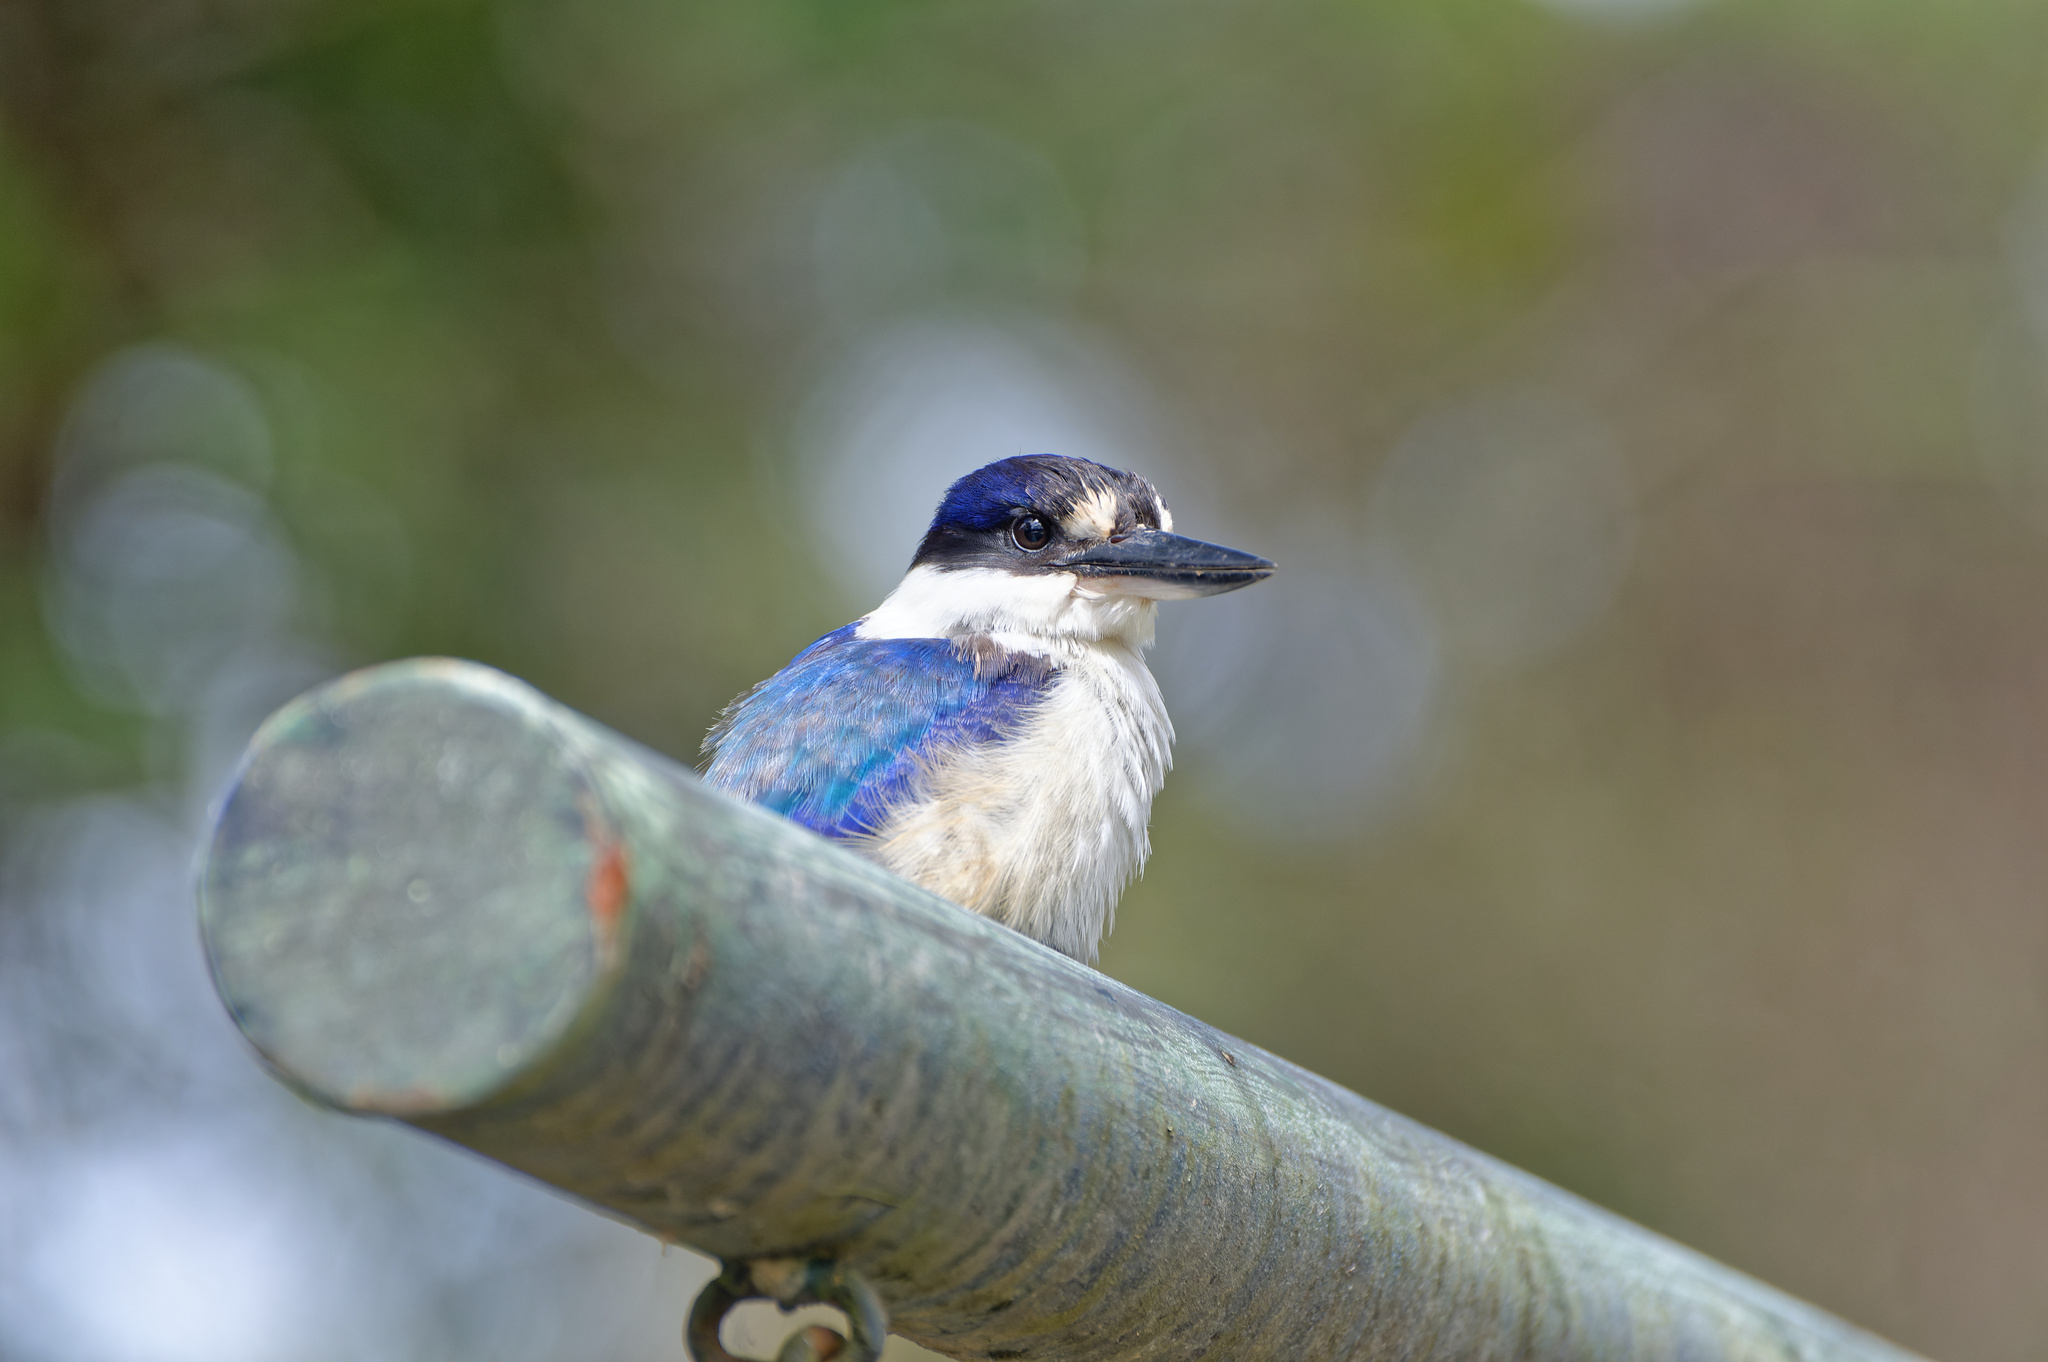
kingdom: Animalia
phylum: Chordata
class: Aves
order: Coraciiformes
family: Alcedinidae
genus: Todiramphus
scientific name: Todiramphus macleayii
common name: Forest kingfisher
